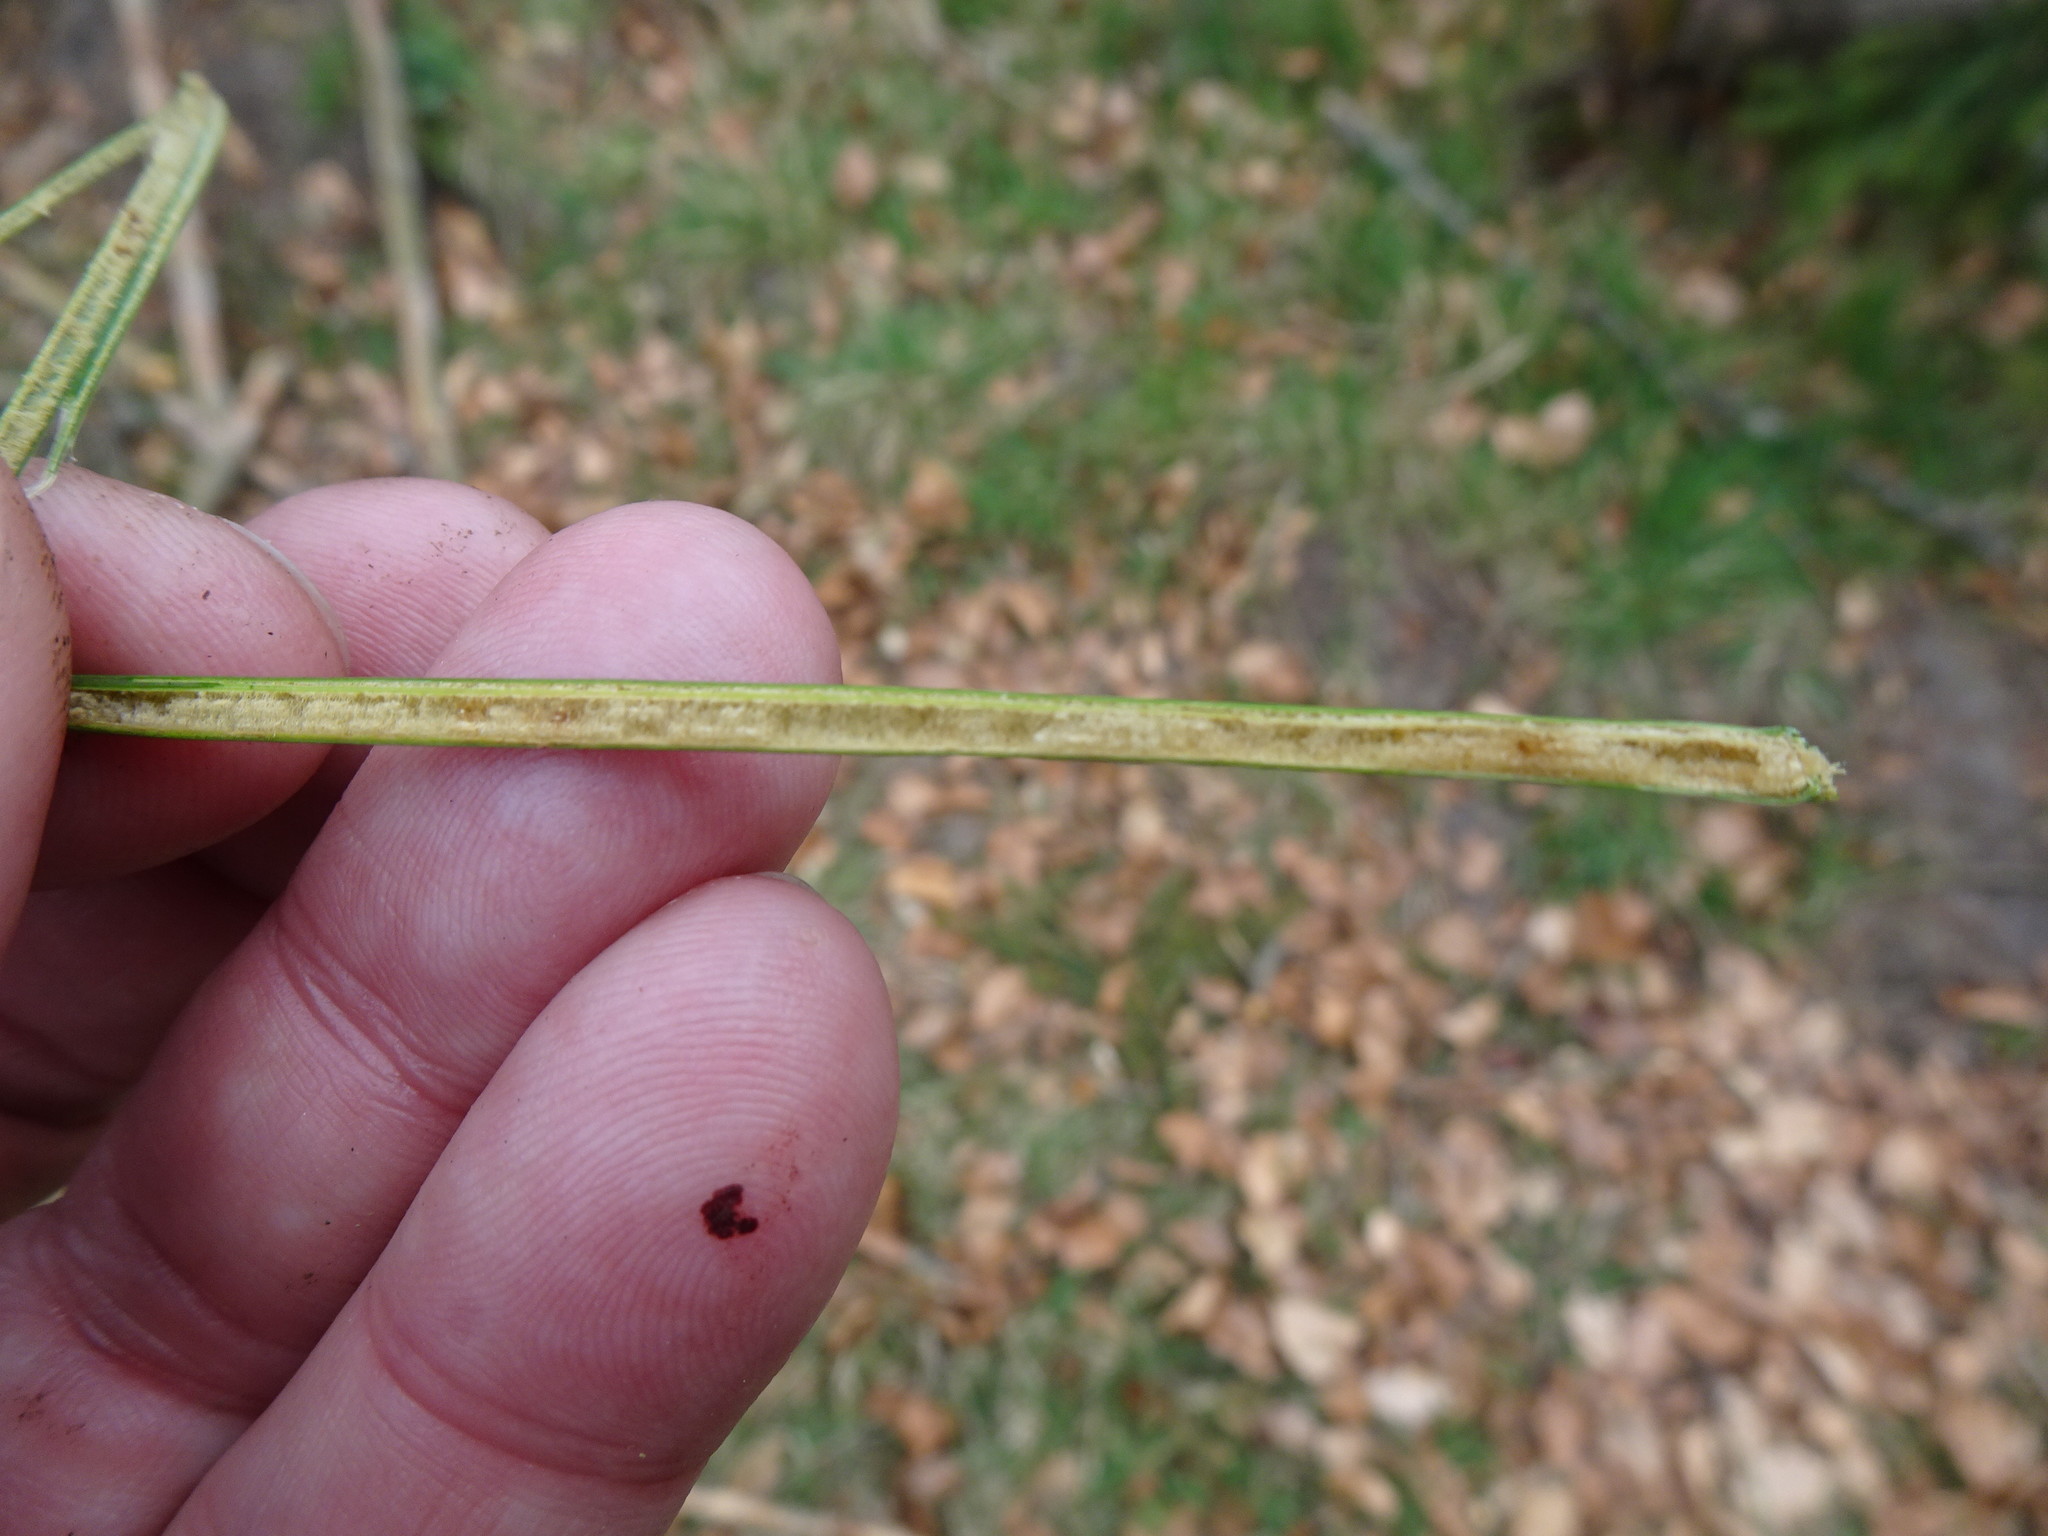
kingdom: Plantae
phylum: Tracheophyta
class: Liliopsida
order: Poales
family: Juncaceae
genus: Juncus
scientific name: Juncus effusus
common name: Soft rush
